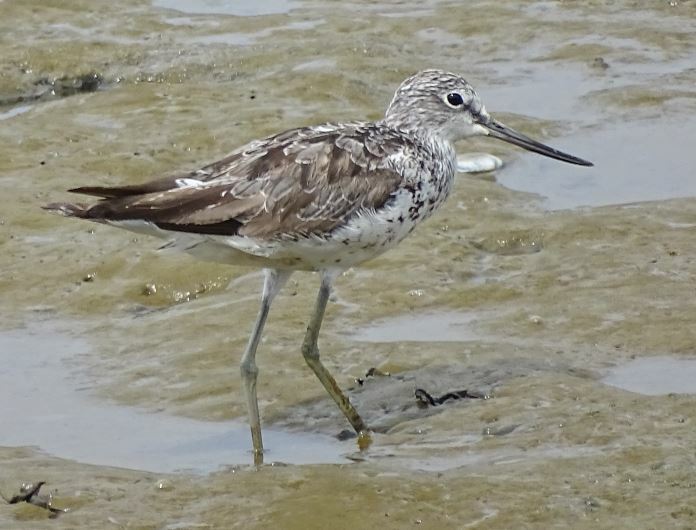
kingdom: Animalia
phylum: Chordata
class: Aves
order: Charadriiformes
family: Scolopacidae
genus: Tringa
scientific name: Tringa nebularia
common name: Common greenshank
